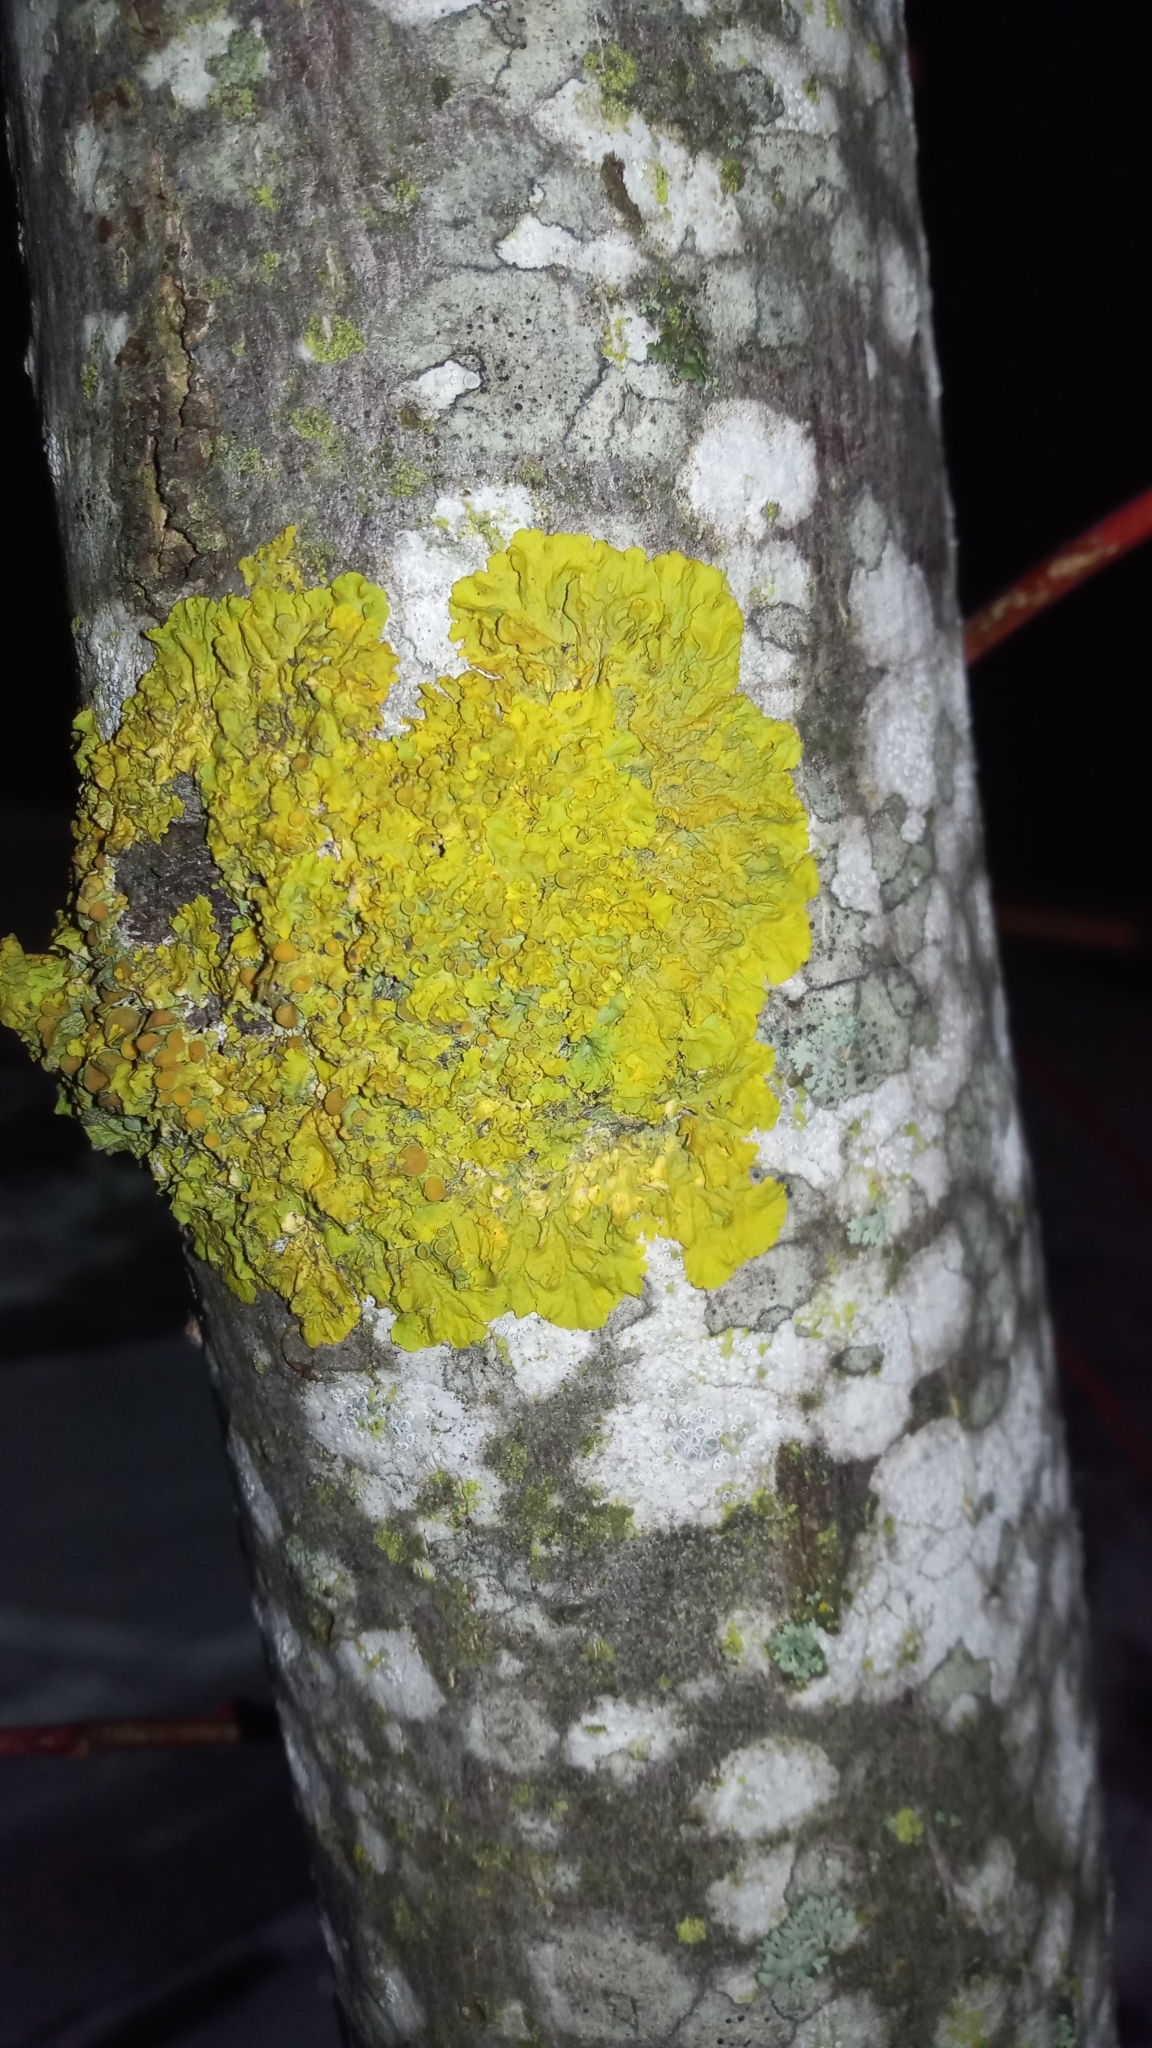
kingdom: Fungi
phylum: Ascomycota
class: Lecanoromycetes
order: Teloschistales
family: Teloschistaceae
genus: Xanthoria
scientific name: Xanthoria parietina
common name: Common orange lichen
